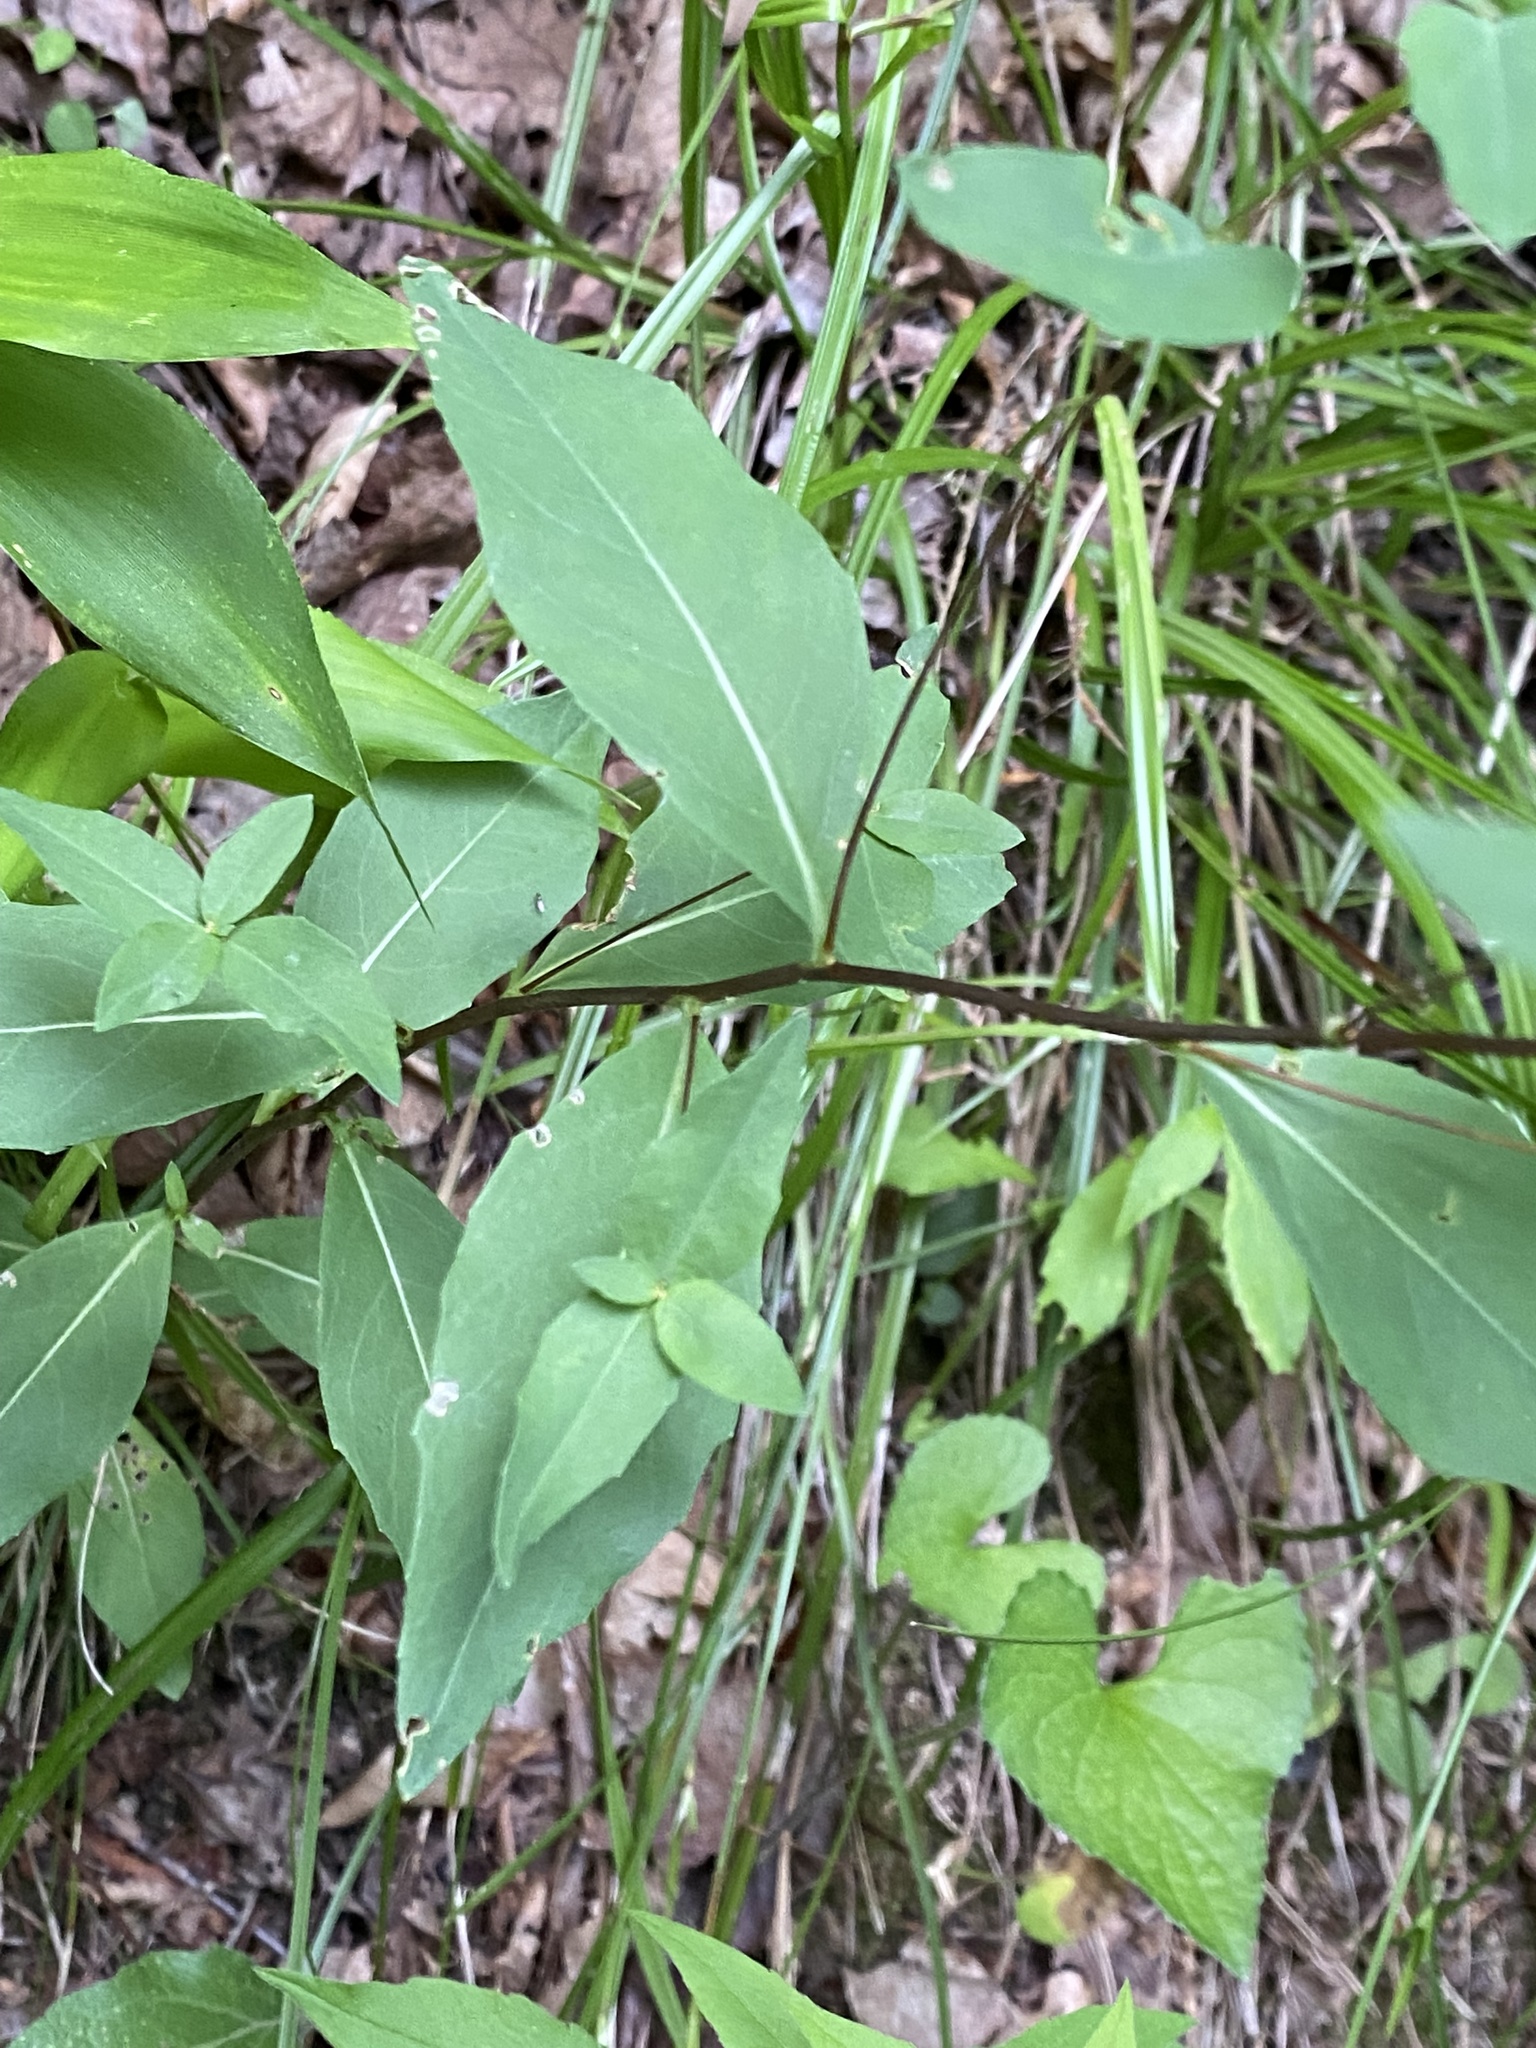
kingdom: Plantae
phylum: Tracheophyta
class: Magnoliopsida
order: Myrtales
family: Onagraceae
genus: Oenothera
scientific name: Oenothera tetragona
